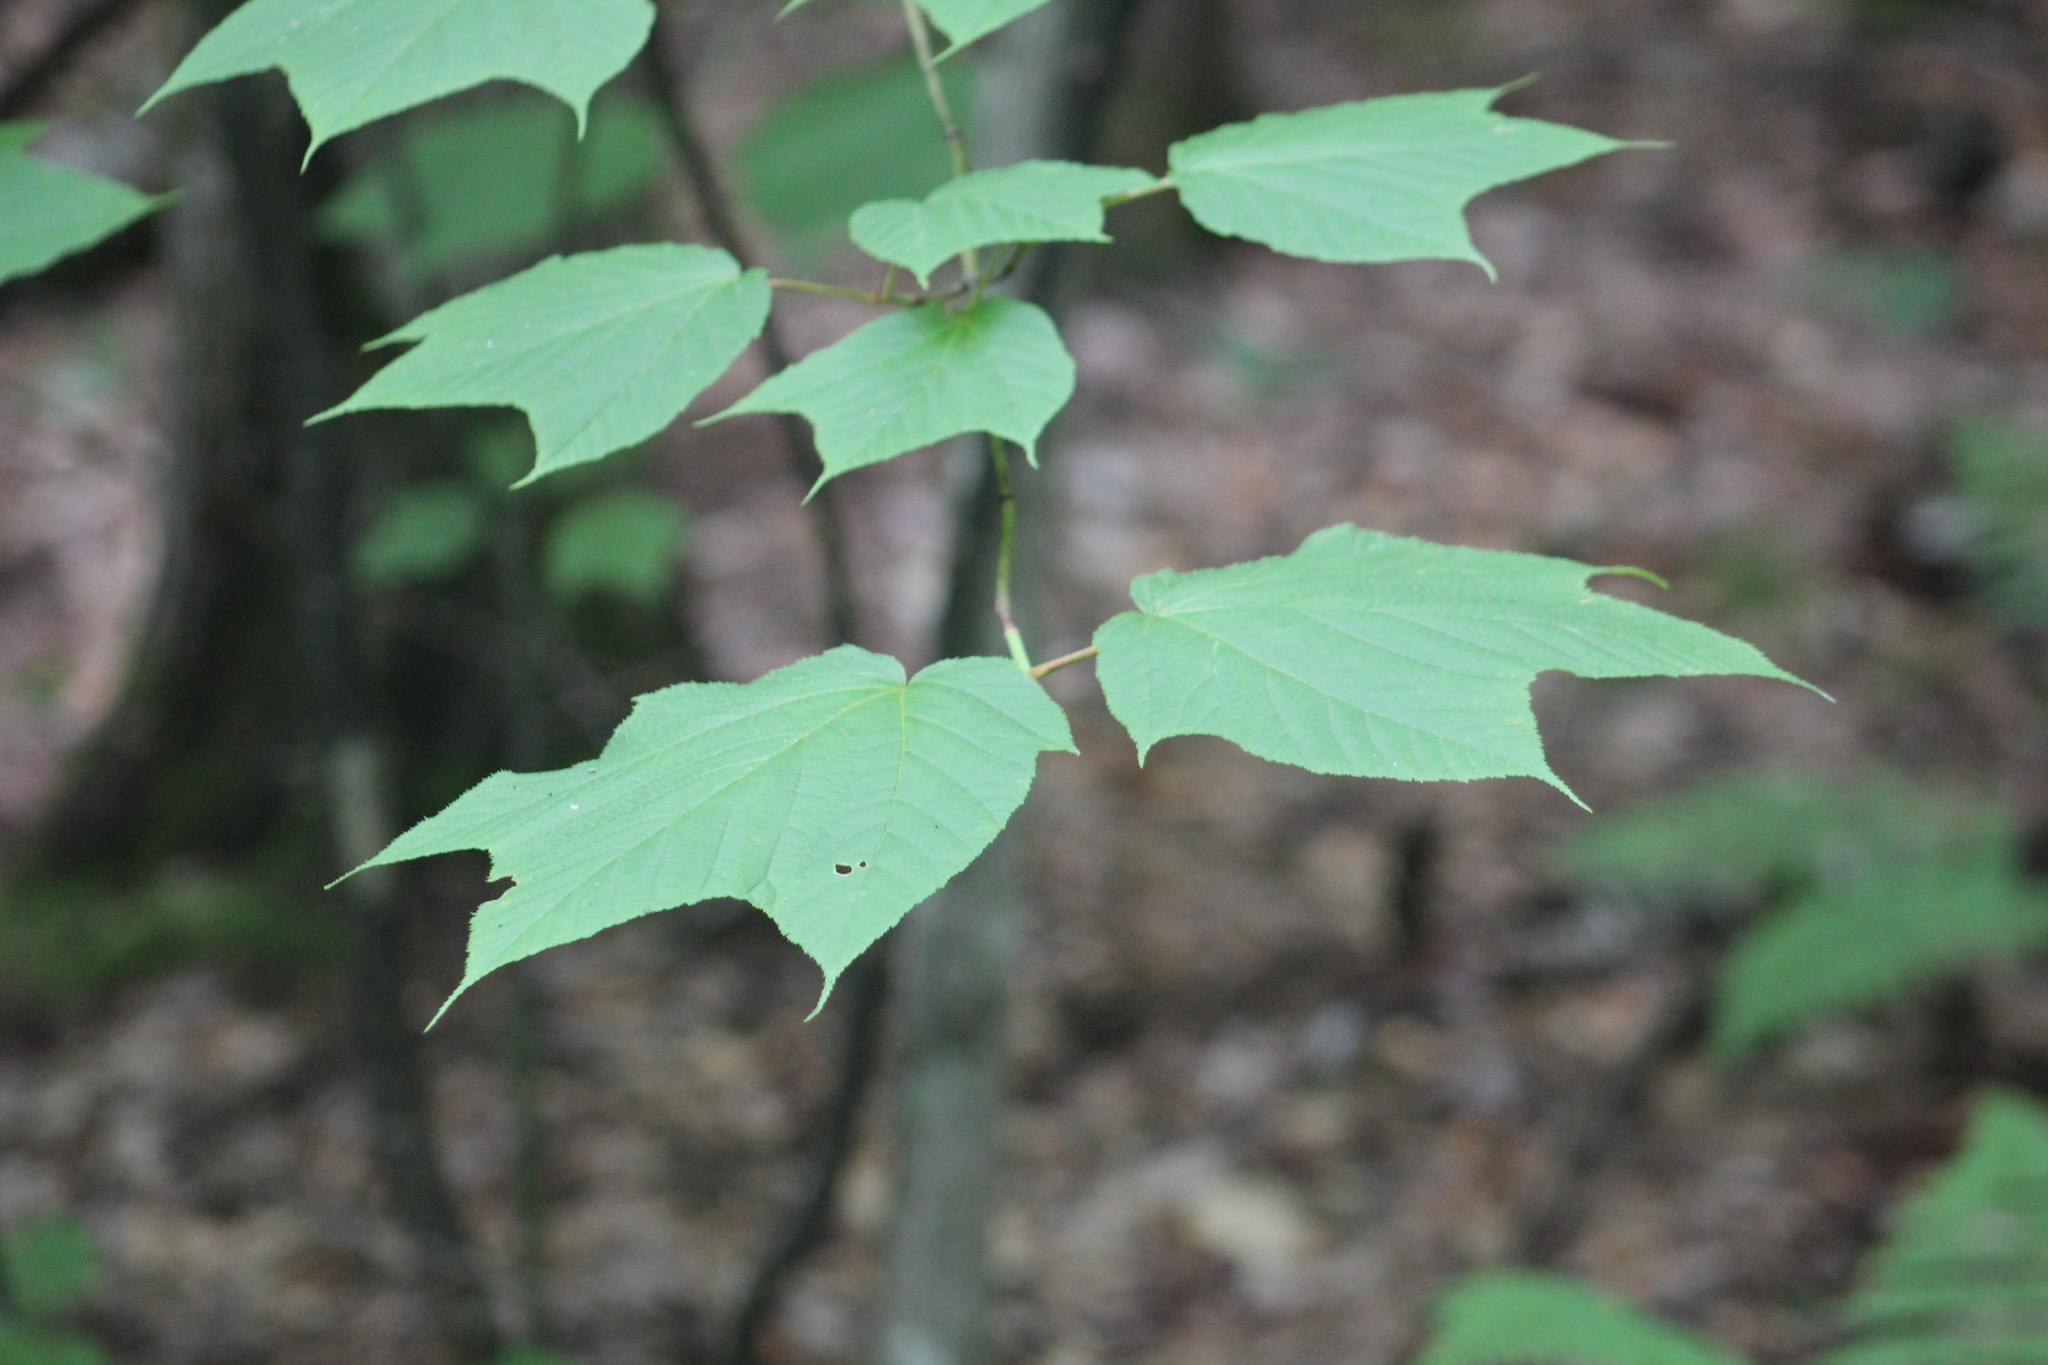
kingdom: Plantae
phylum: Tracheophyta
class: Magnoliopsida
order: Sapindales
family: Sapindaceae
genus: Acer
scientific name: Acer pensylvanicum
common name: Moosewood
